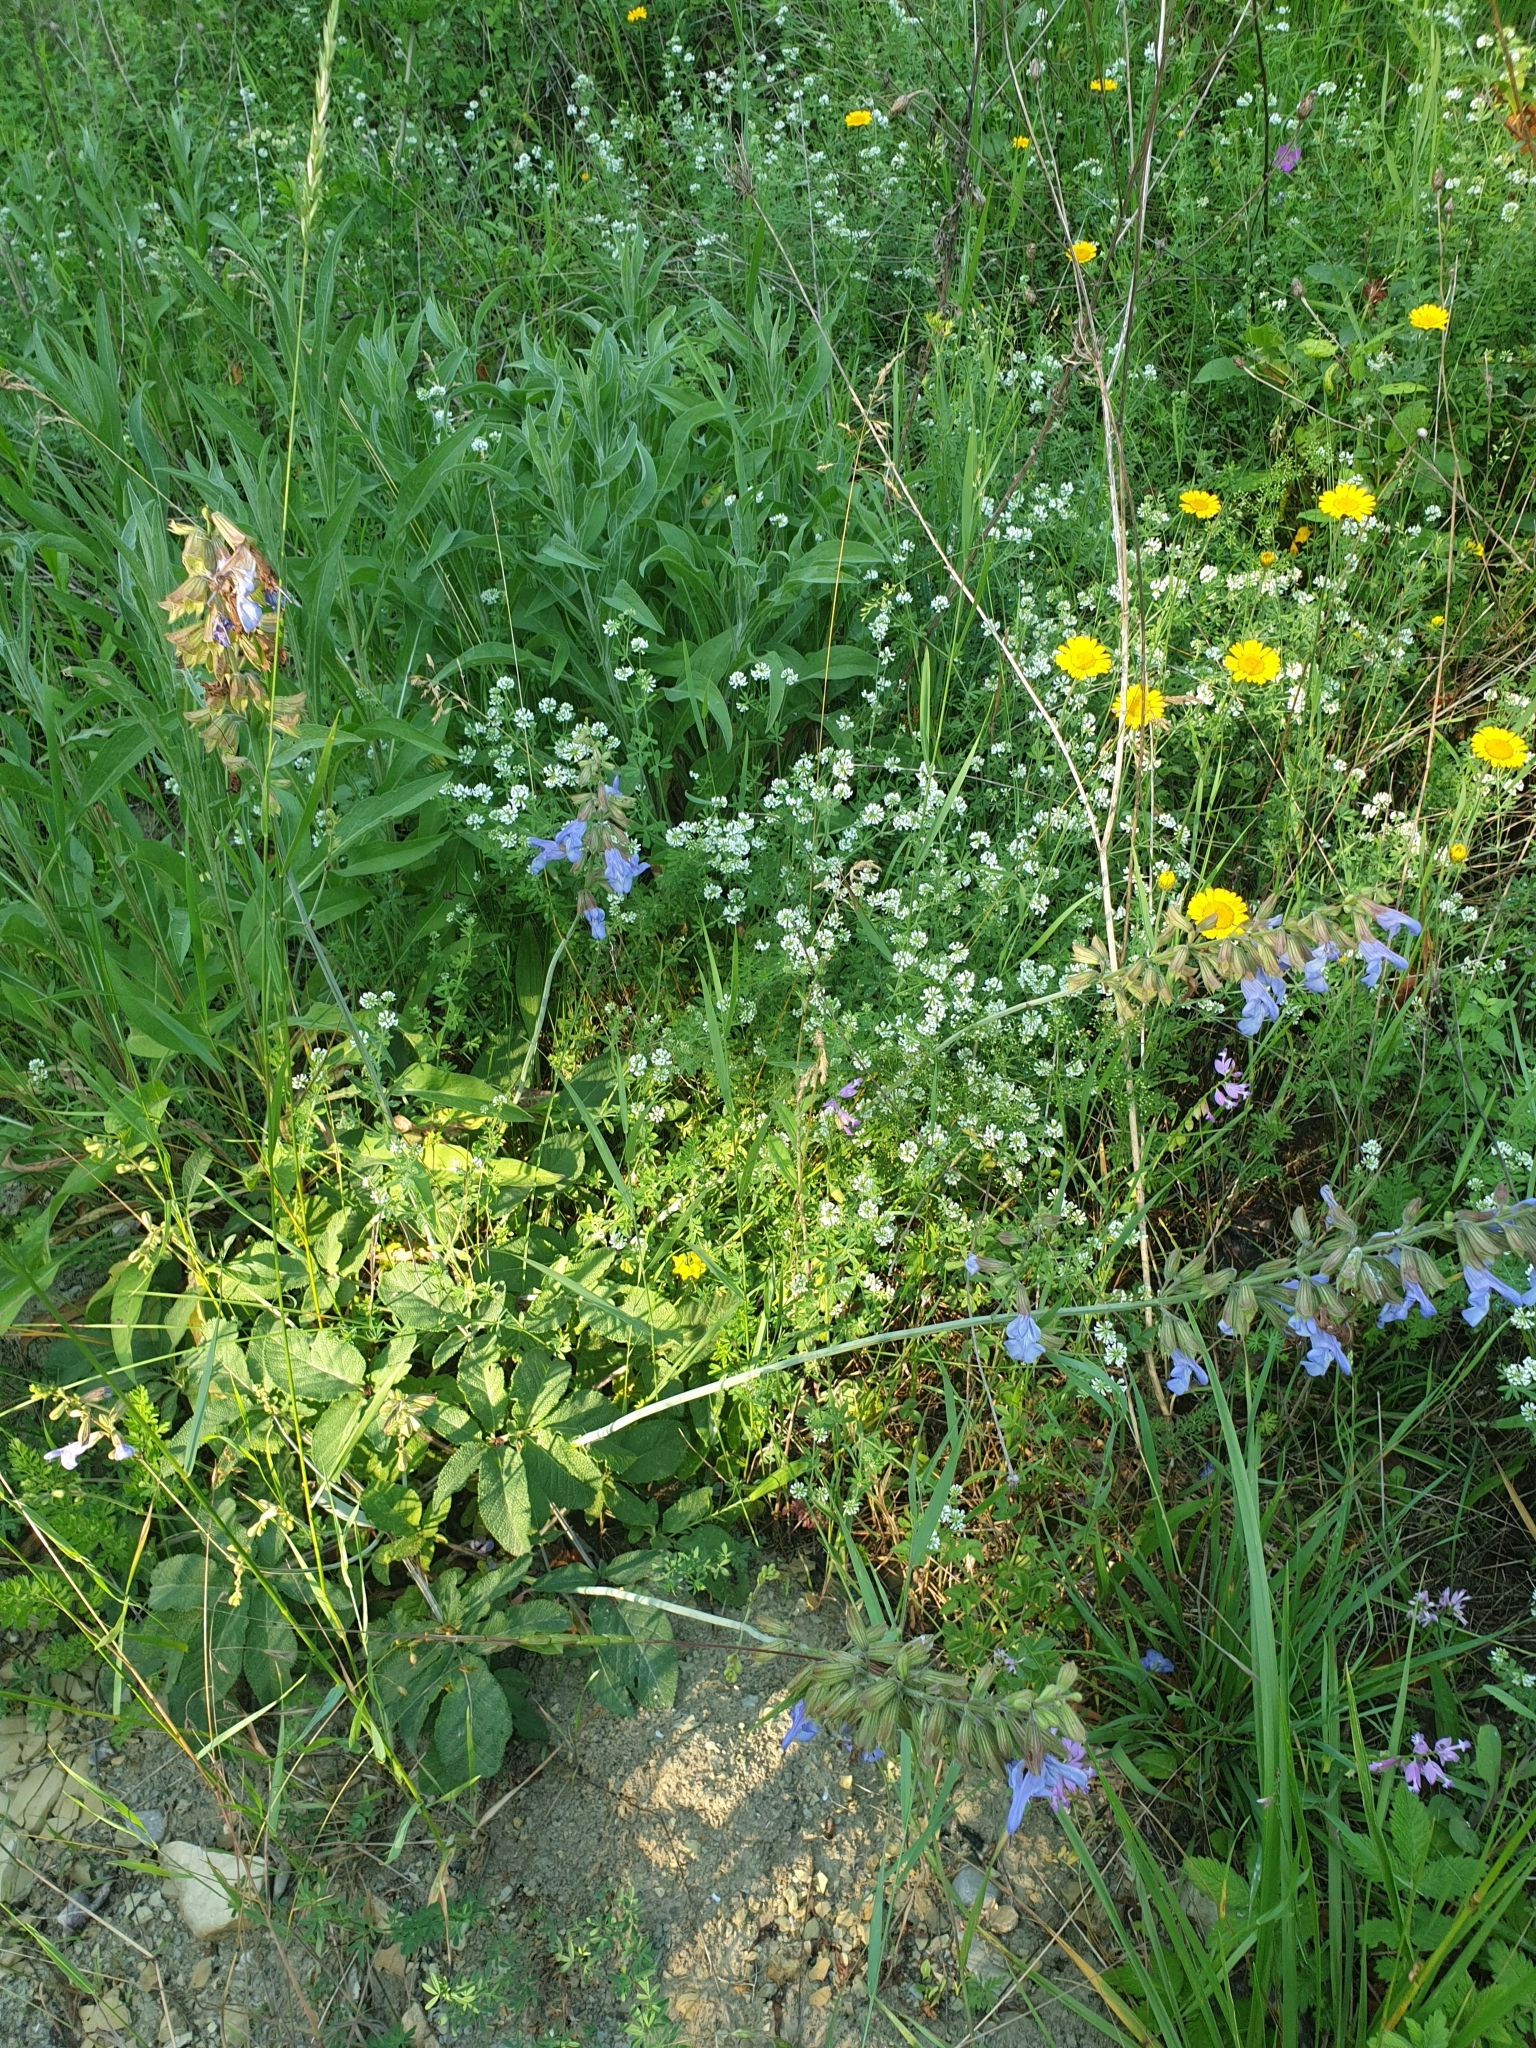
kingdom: Plantae
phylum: Tracheophyta
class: Magnoliopsida
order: Lamiales
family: Lamiaceae
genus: Salvia
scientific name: Salvia ringens
